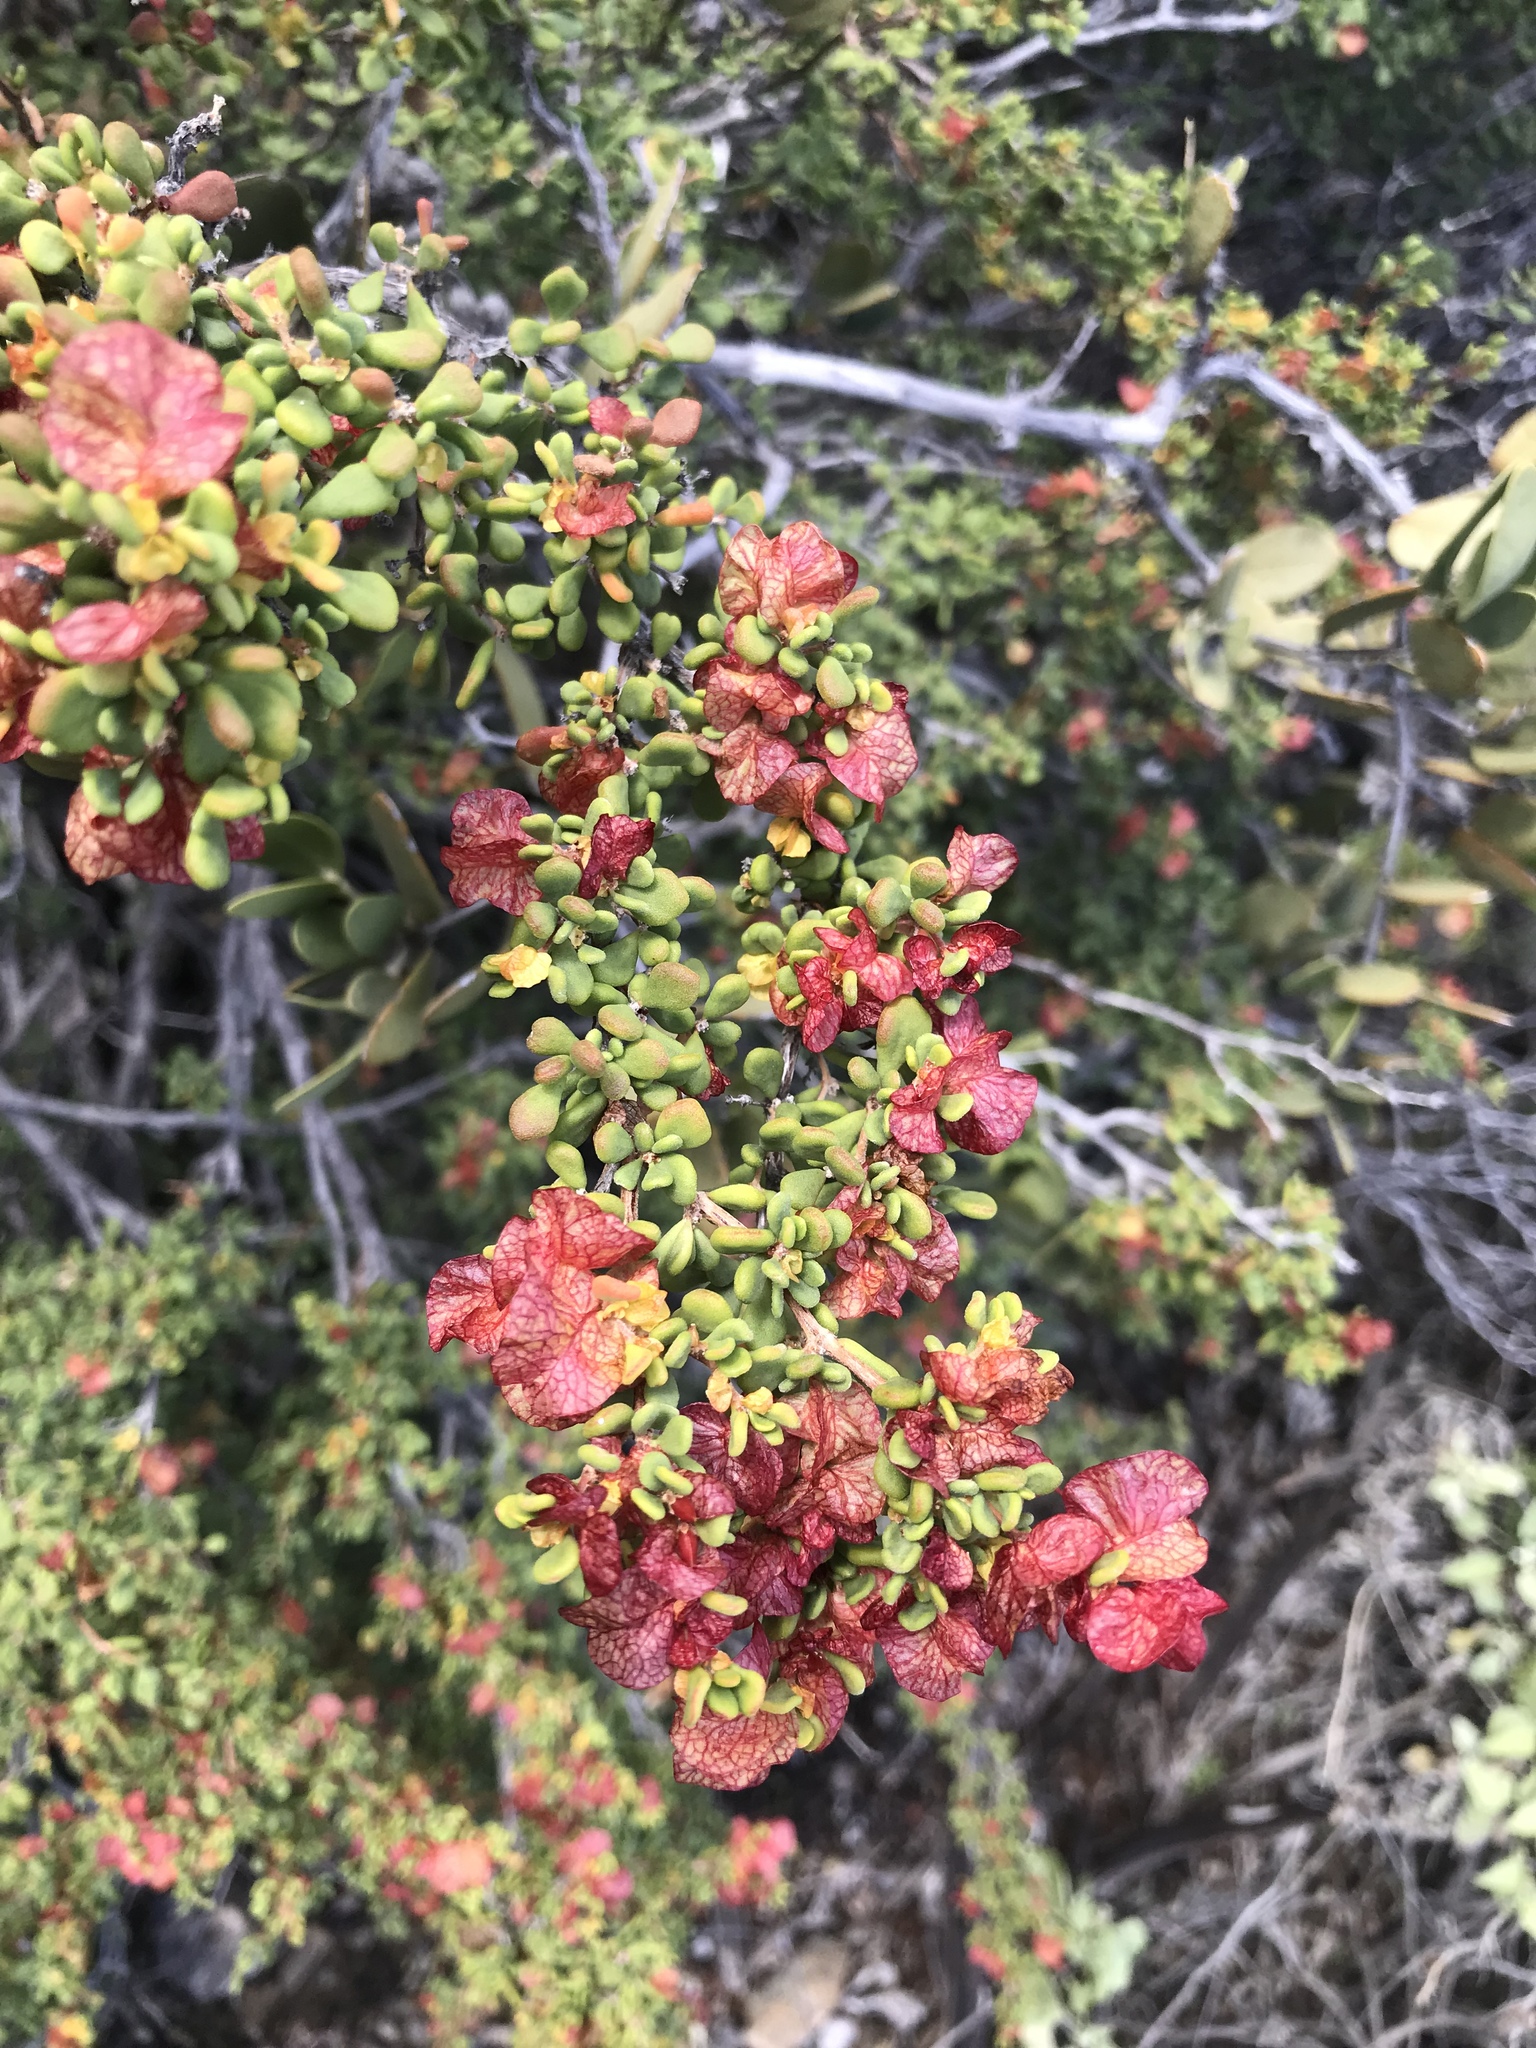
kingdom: Plantae
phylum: Tracheophyta
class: Magnoliopsida
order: Caryophyllales
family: Polygonaceae
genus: Harfordia
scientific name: Harfordia macroptera
